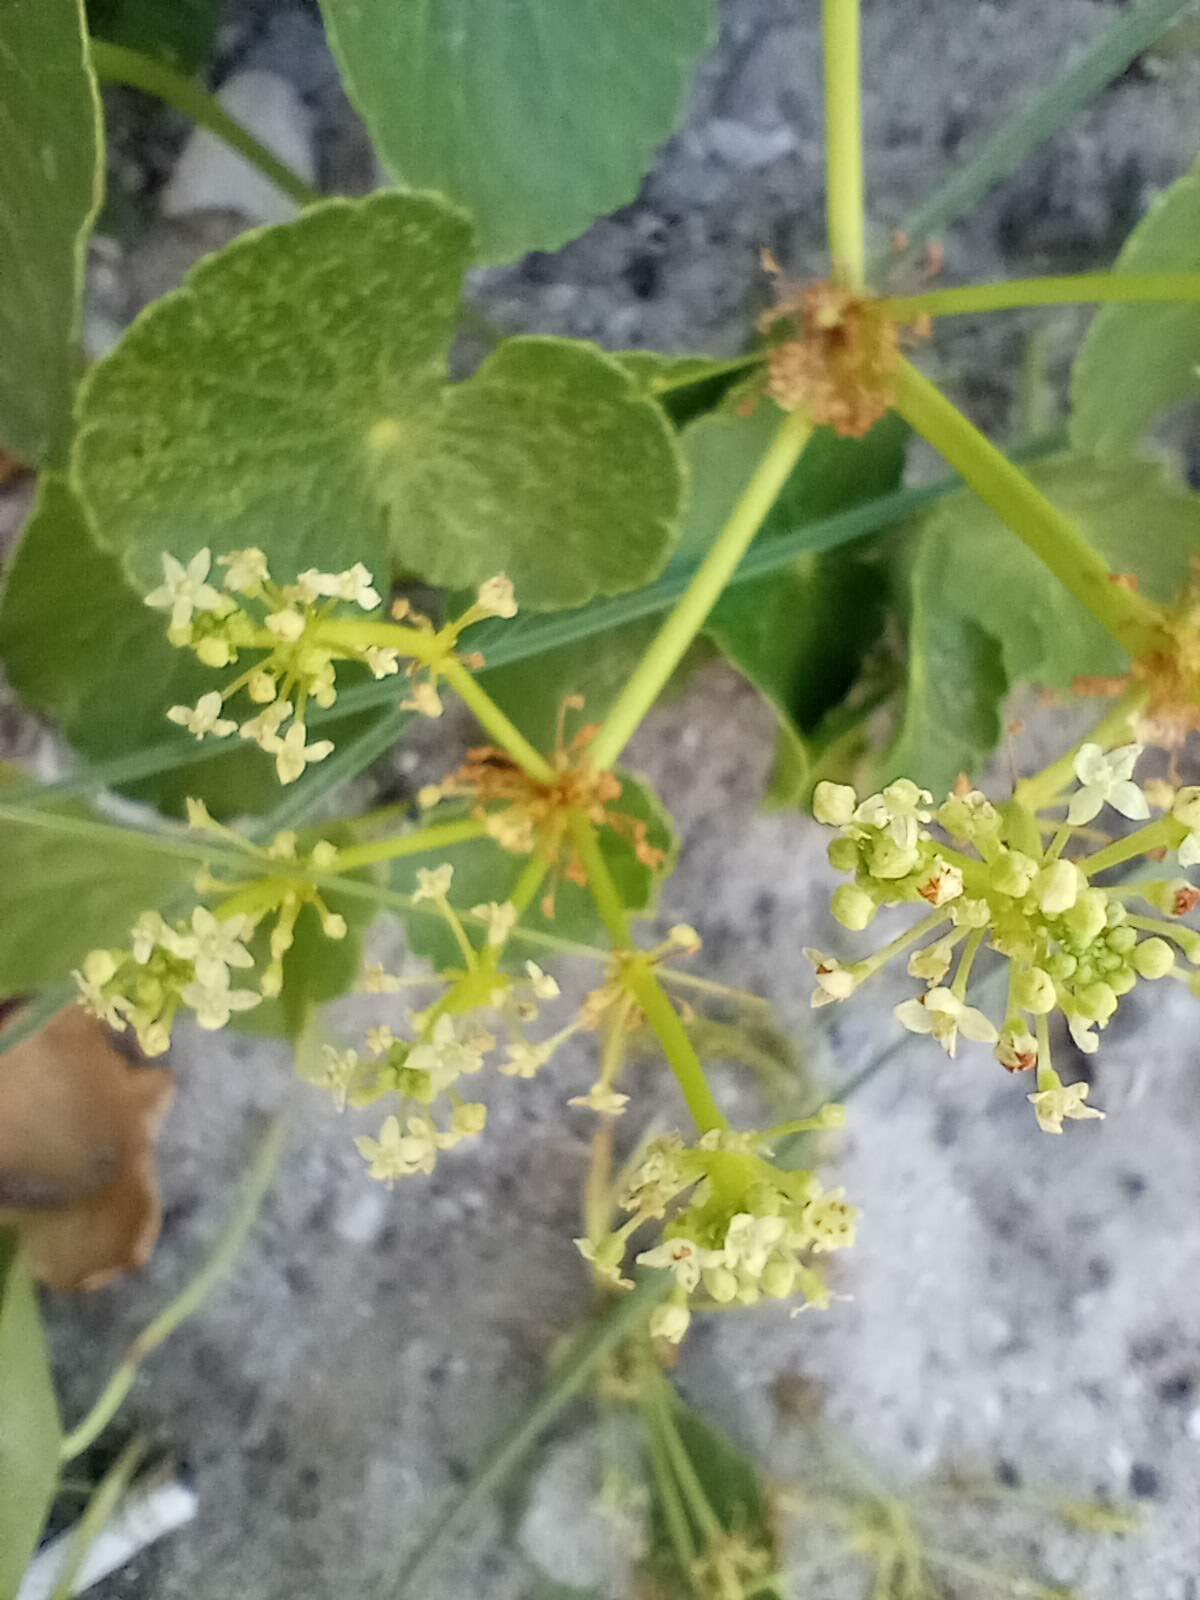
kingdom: Plantae
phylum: Tracheophyta
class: Magnoliopsida
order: Apiales
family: Araliaceae
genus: Hydrocotyle
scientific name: Hydrocotyle bonariensis
